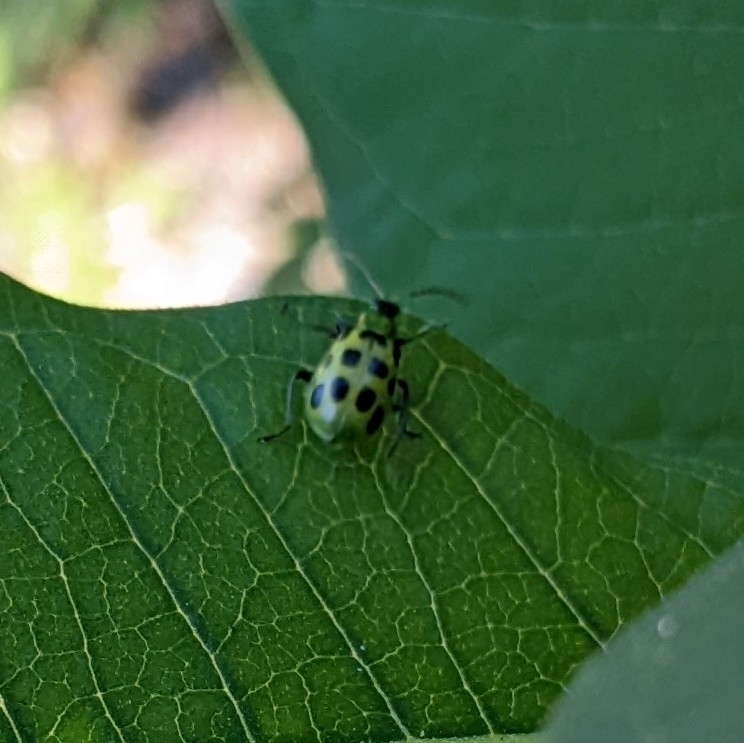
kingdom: Animalia
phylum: Arthropoda
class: Insecta
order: Coleoptera
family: Chrysomelidae
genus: Diabrotica
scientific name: Diabrotica undecimpunctata
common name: Spotted cucumber beetle
